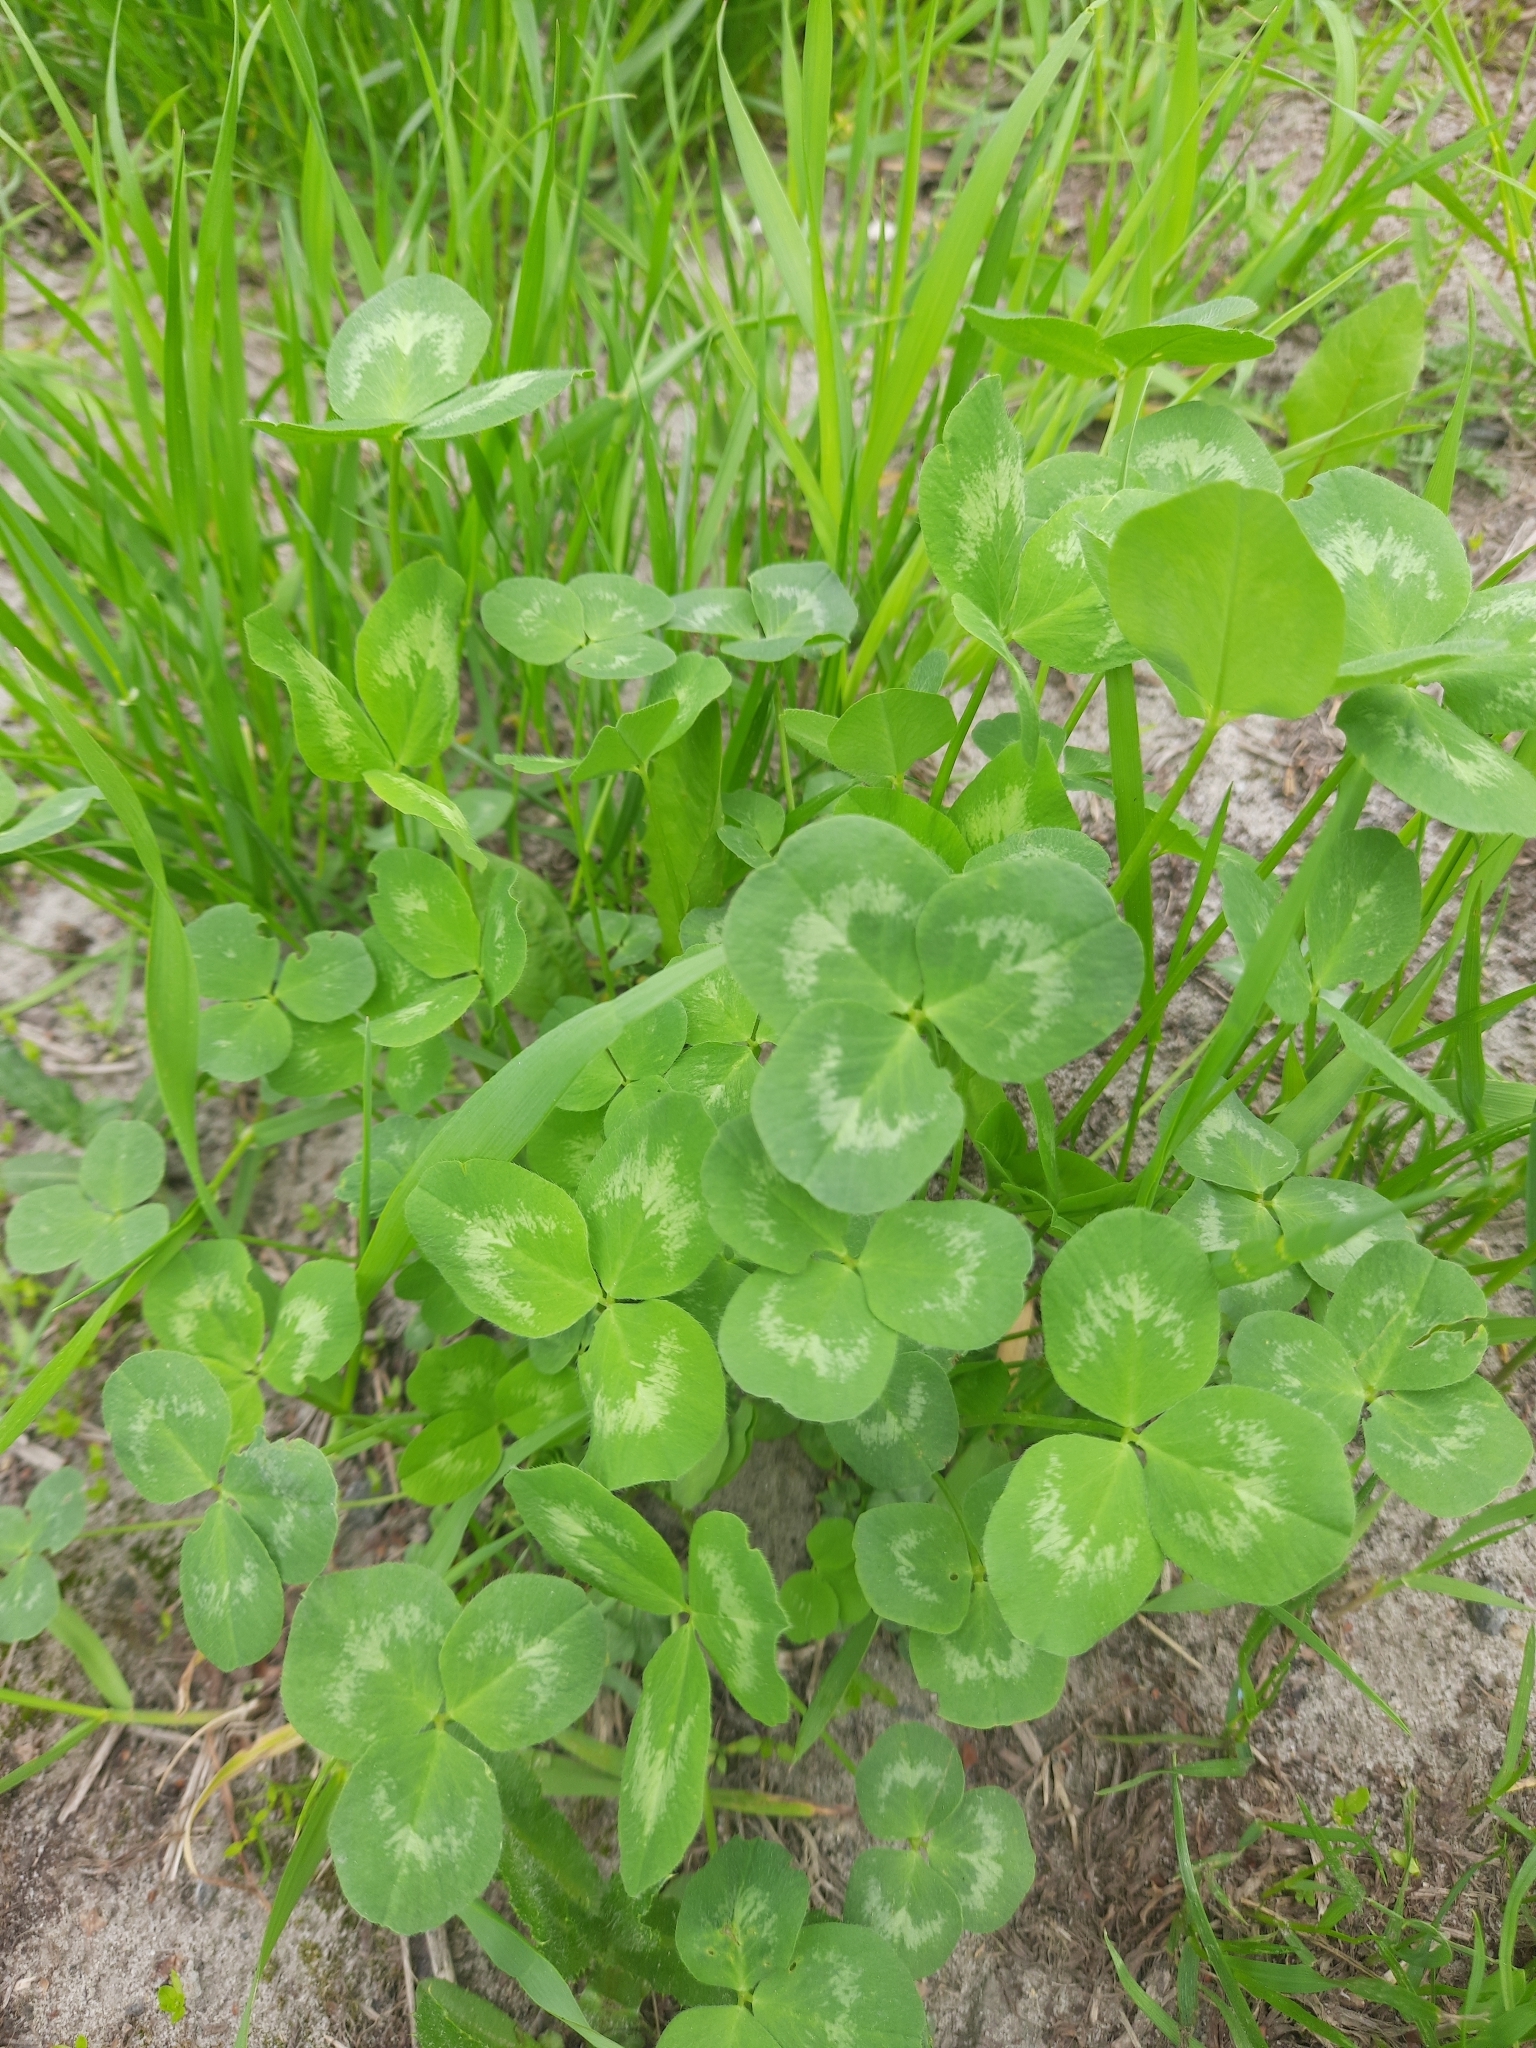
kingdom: Plantae
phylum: Tracheophyta
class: Magnoliopsida
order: Fabales
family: Fabaceae
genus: Trifolium
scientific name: Trifolium repens
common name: White clover
